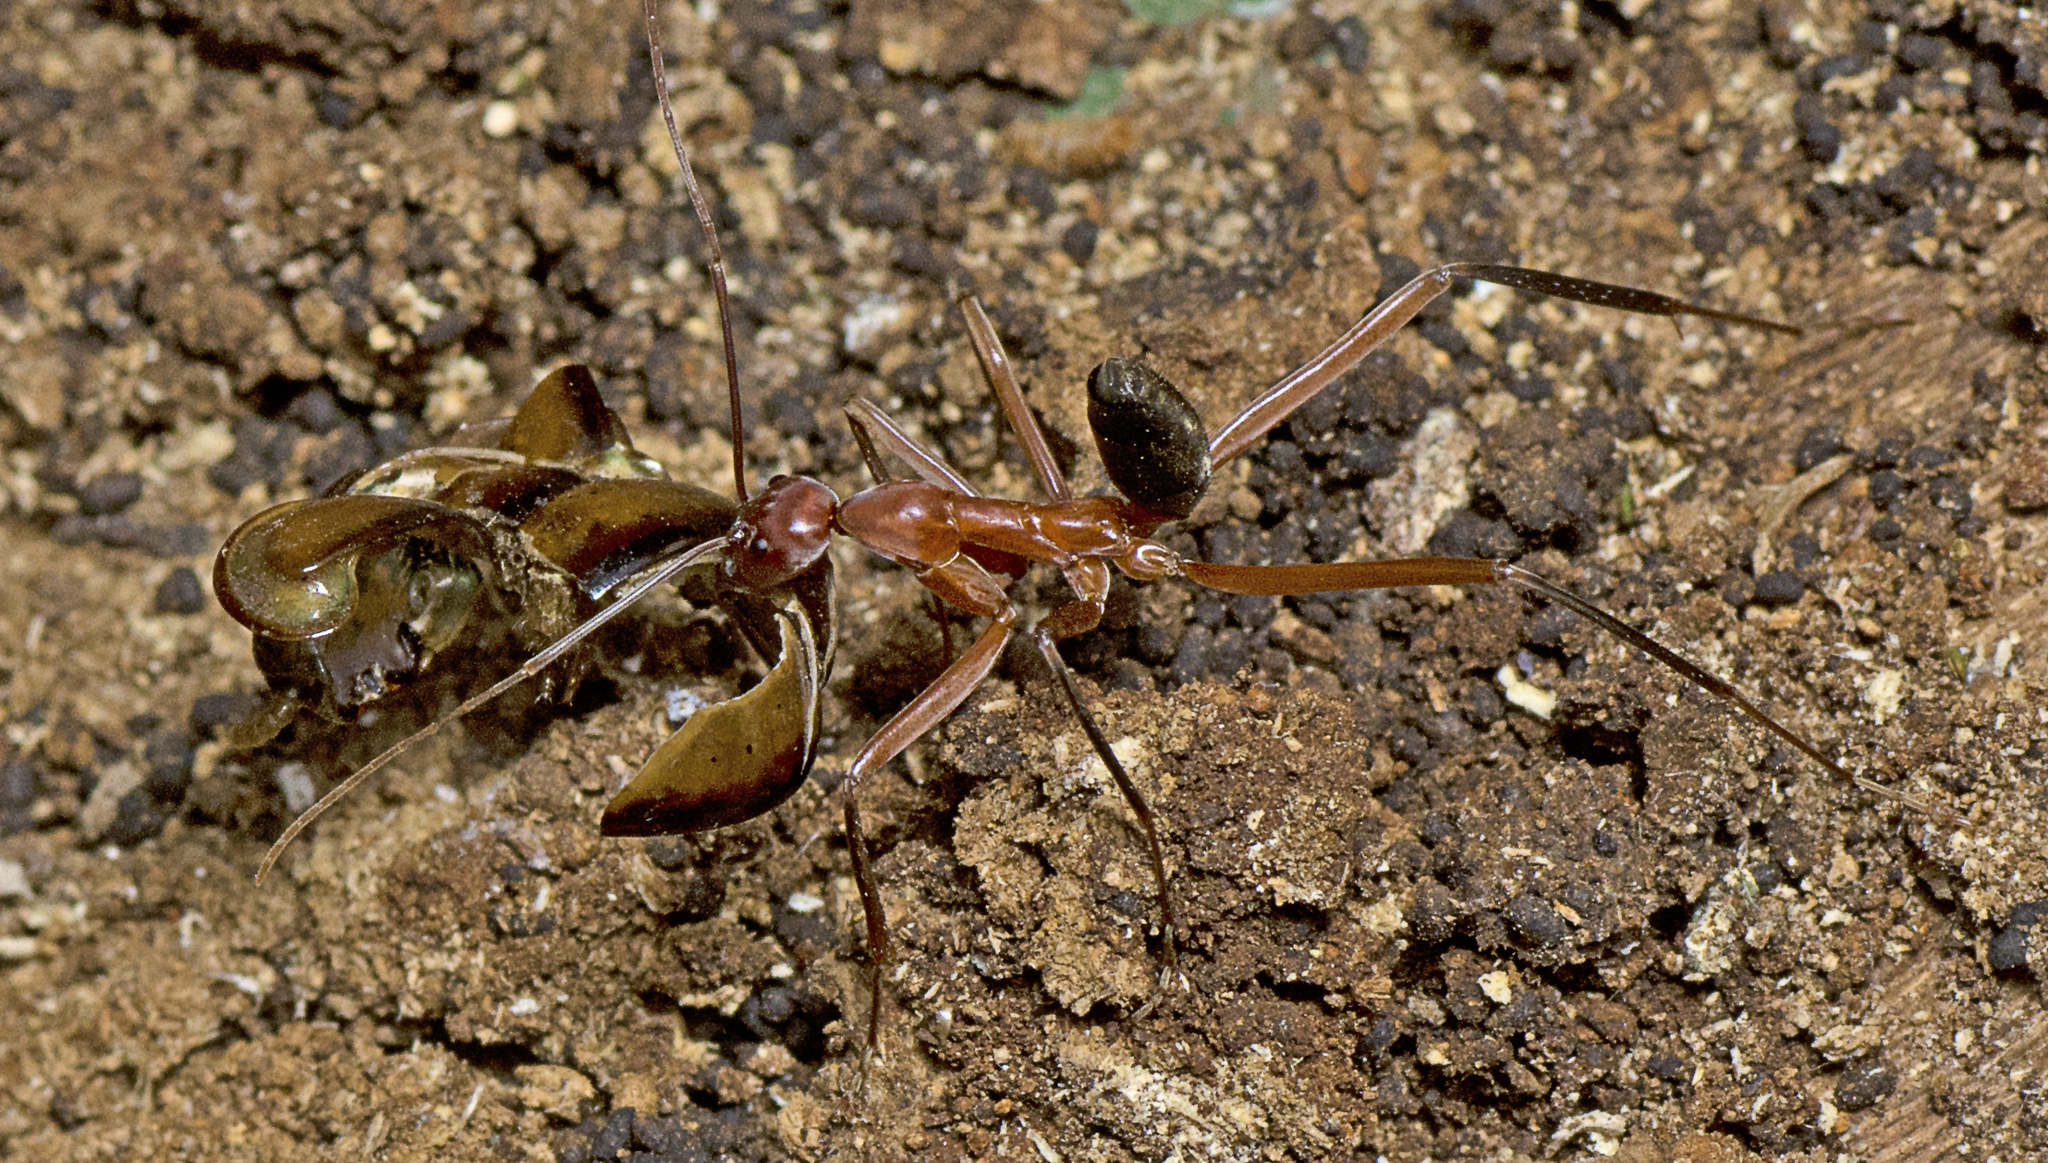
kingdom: Animalia
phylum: Arthropoda
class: Insecta
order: Hymenoptera
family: Formicidae
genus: Leptomyrmex
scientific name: Leptomyrmex tibialis
